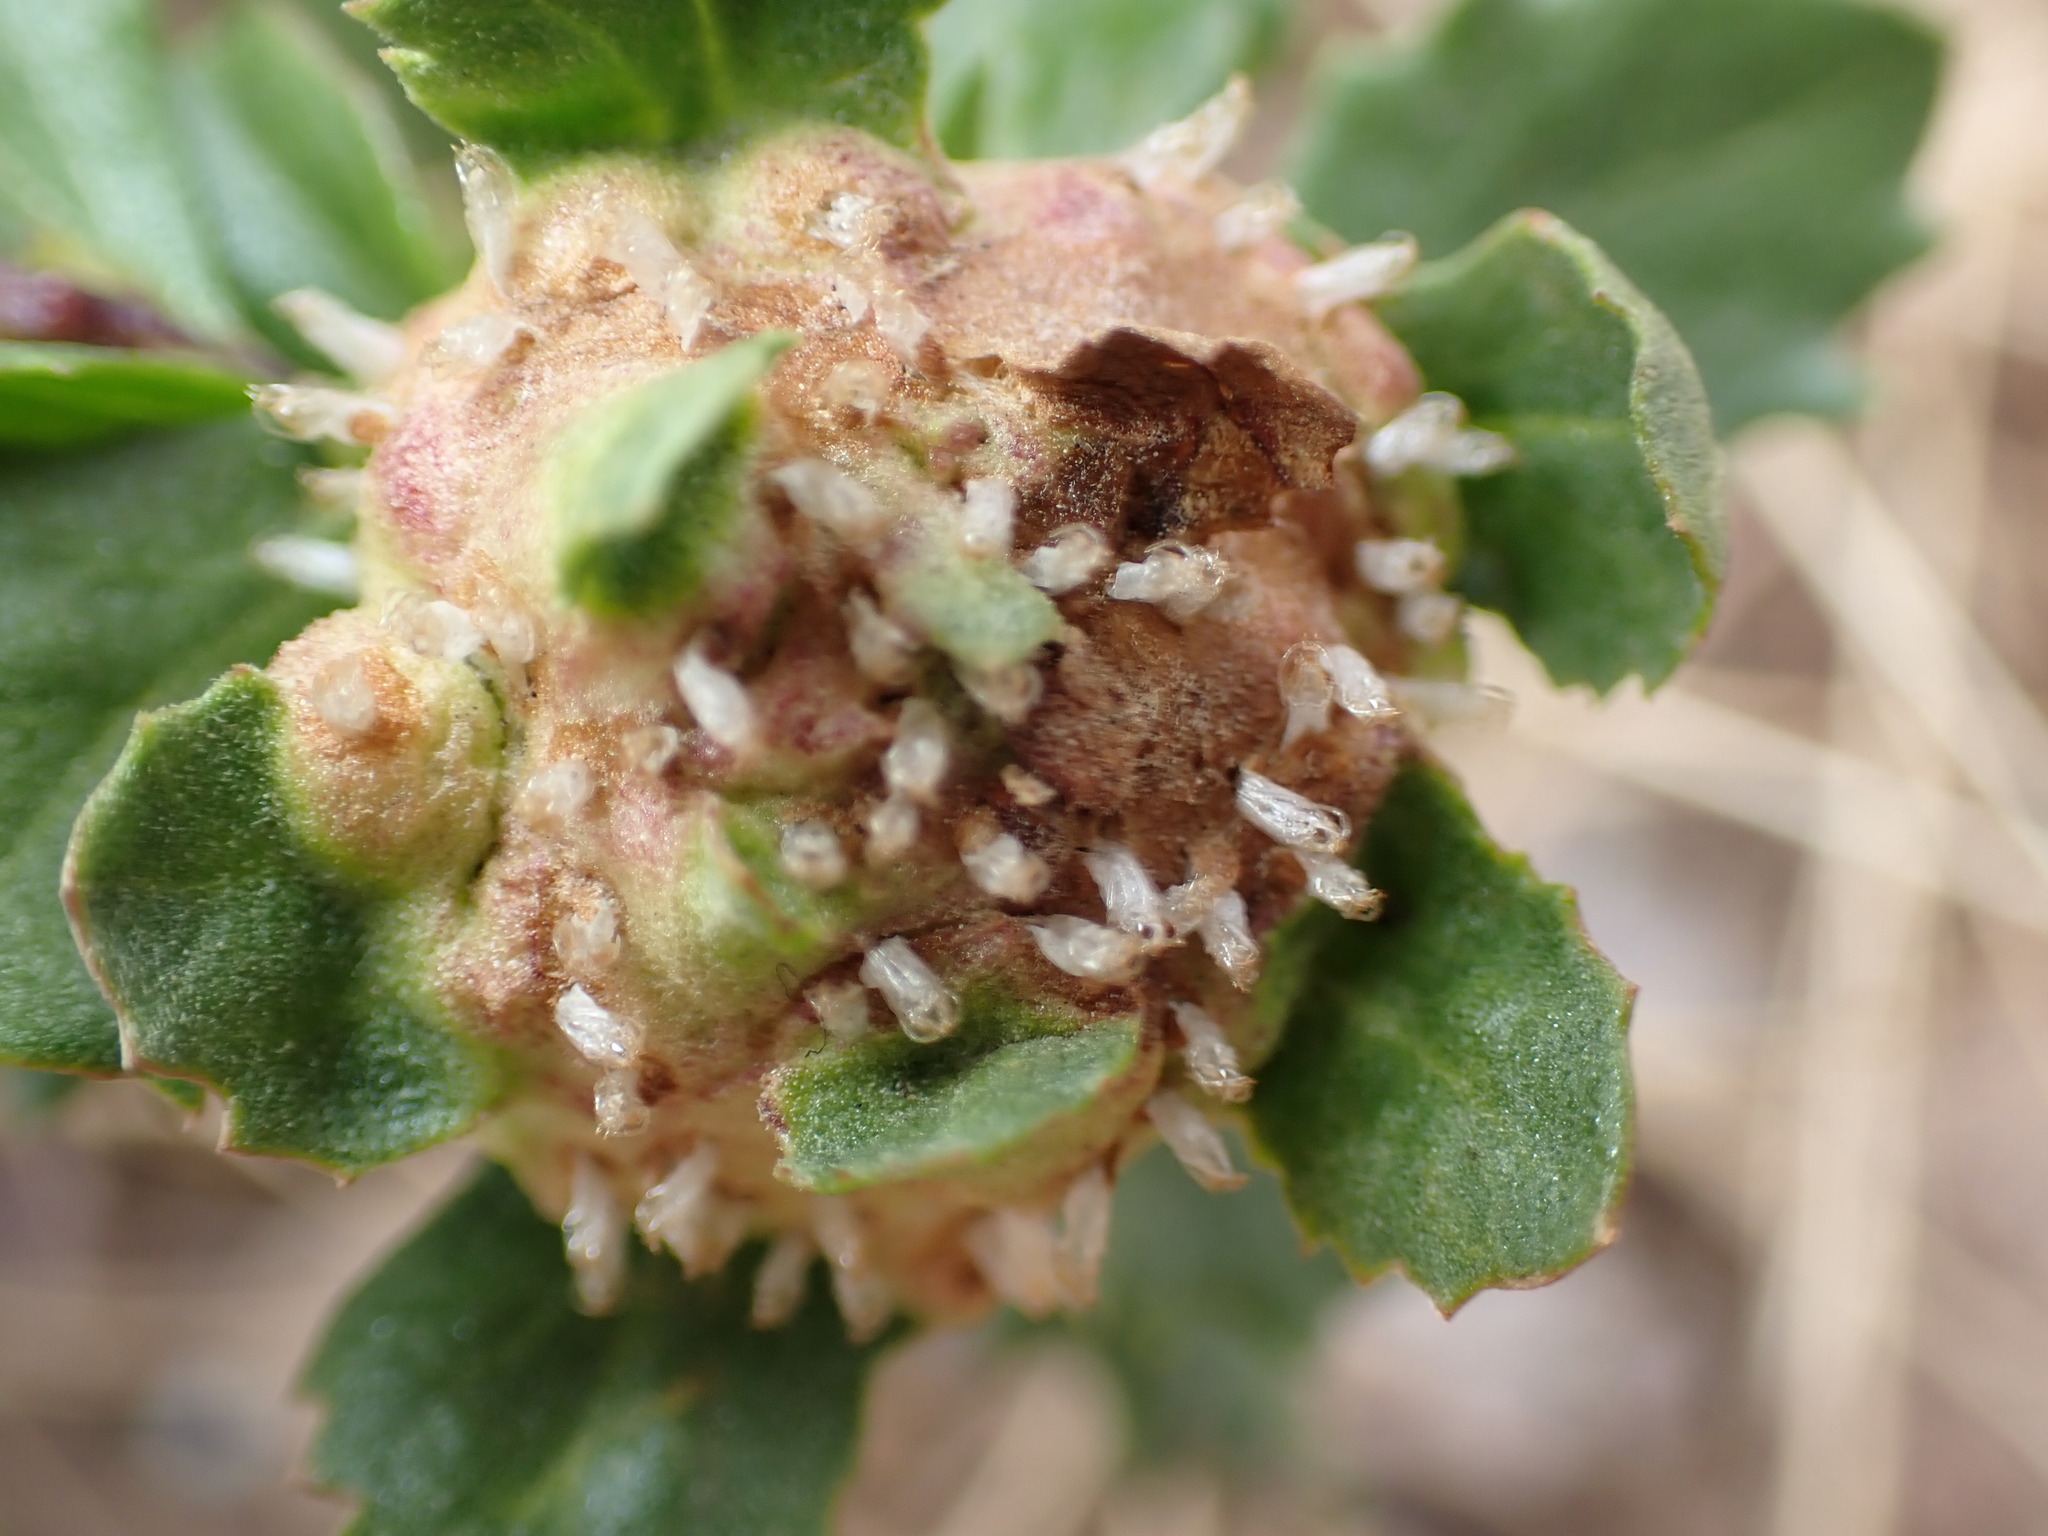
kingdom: Animalia
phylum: Arthropoda
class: Insecta
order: Diptera
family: Cecidomyiidae
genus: Rhopalomyia
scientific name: Rhopalomyia californica
